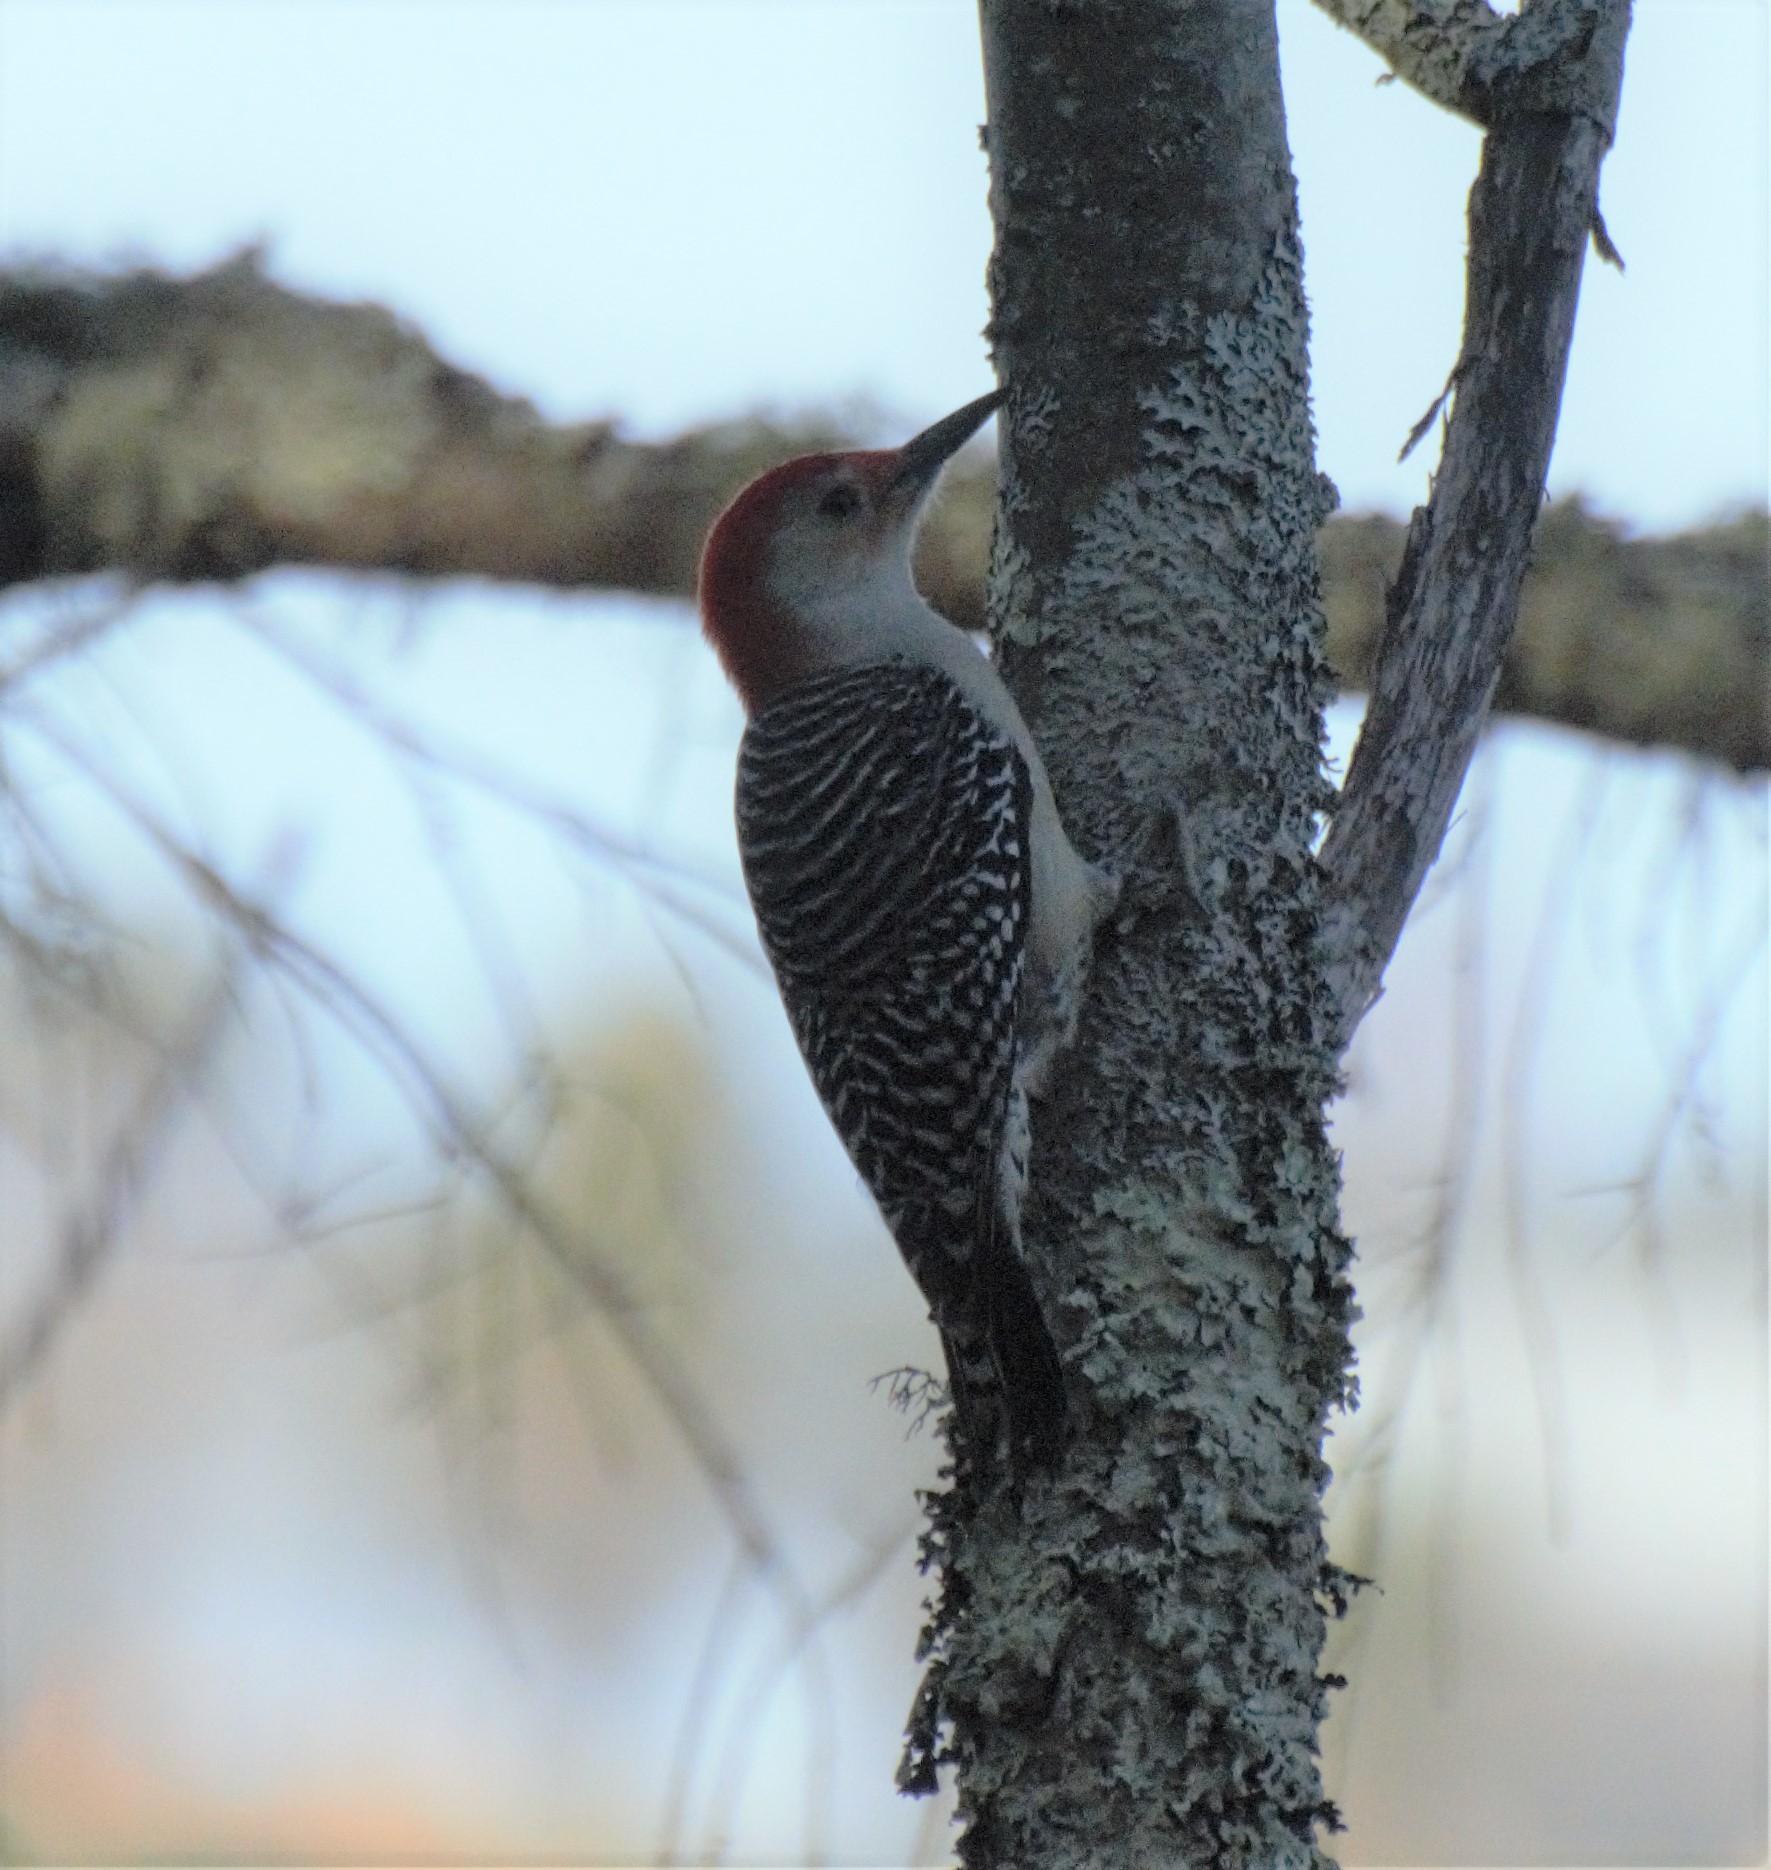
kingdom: Animalia
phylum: Chordata
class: Aves
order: Piciformes
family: Picidae
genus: Melanerpes
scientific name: Melanerpes carolinus
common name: Red-bellied woodpecker
